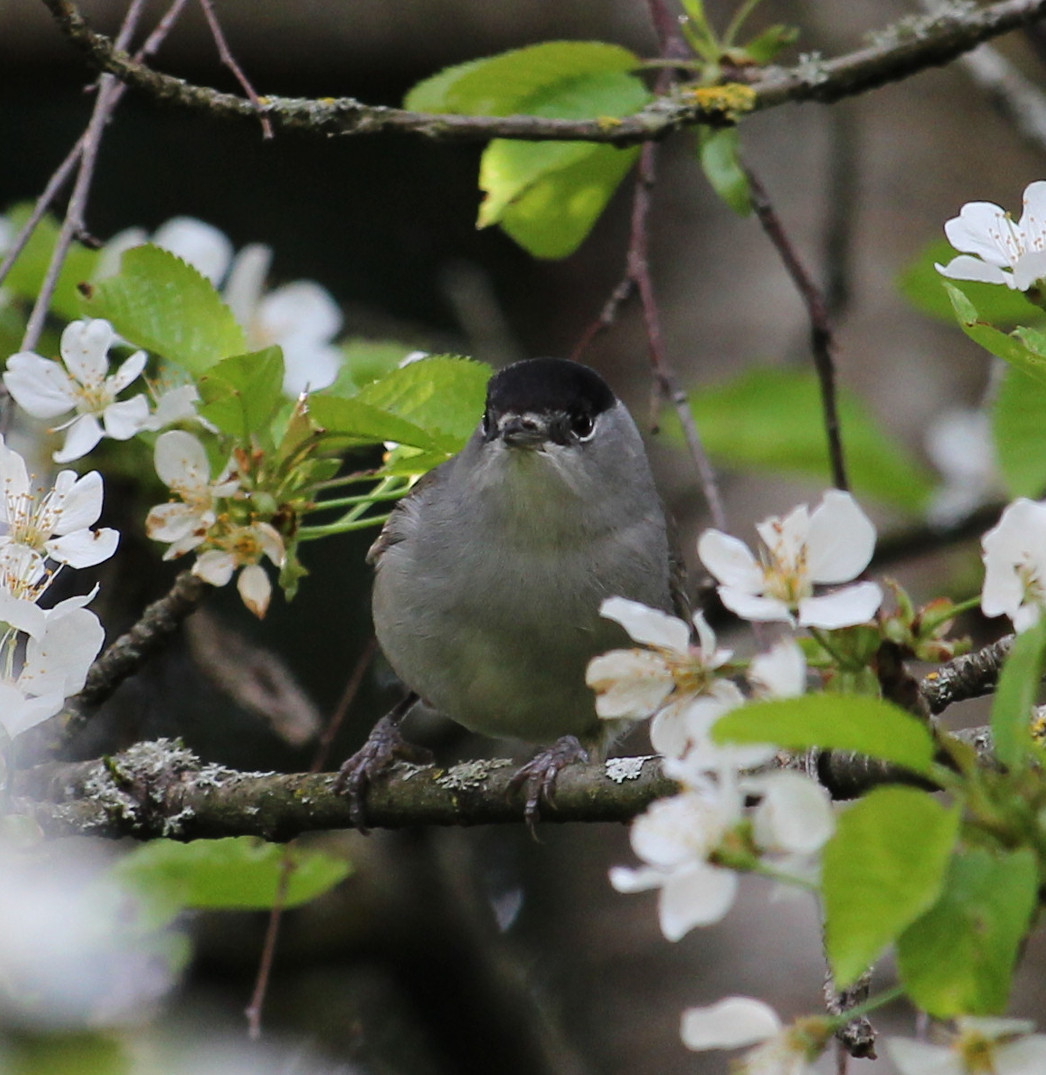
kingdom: Animalia
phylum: Chordata
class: Aves
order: Passeriformes
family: Sylviidae
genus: Sylvia
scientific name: Sylvia atricapilla
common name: Eurasian blackcap
